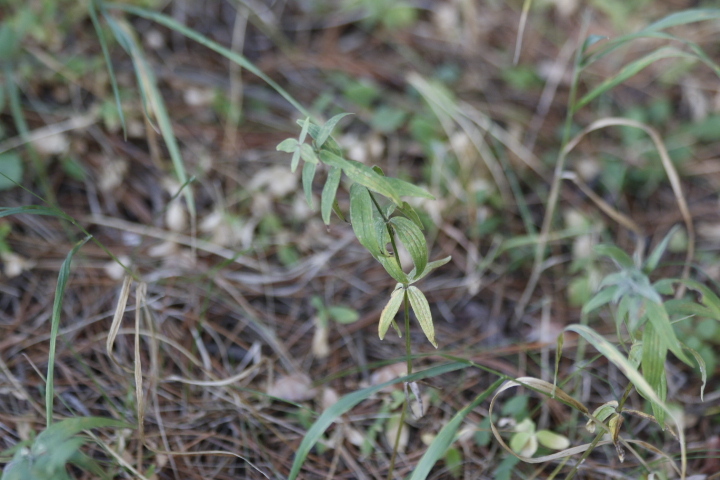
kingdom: Plantae
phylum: Tracheophyta
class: Magnoliopsida
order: Gentianales
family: Rubiaceae
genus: Galium
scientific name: Galium pseudoboreale
